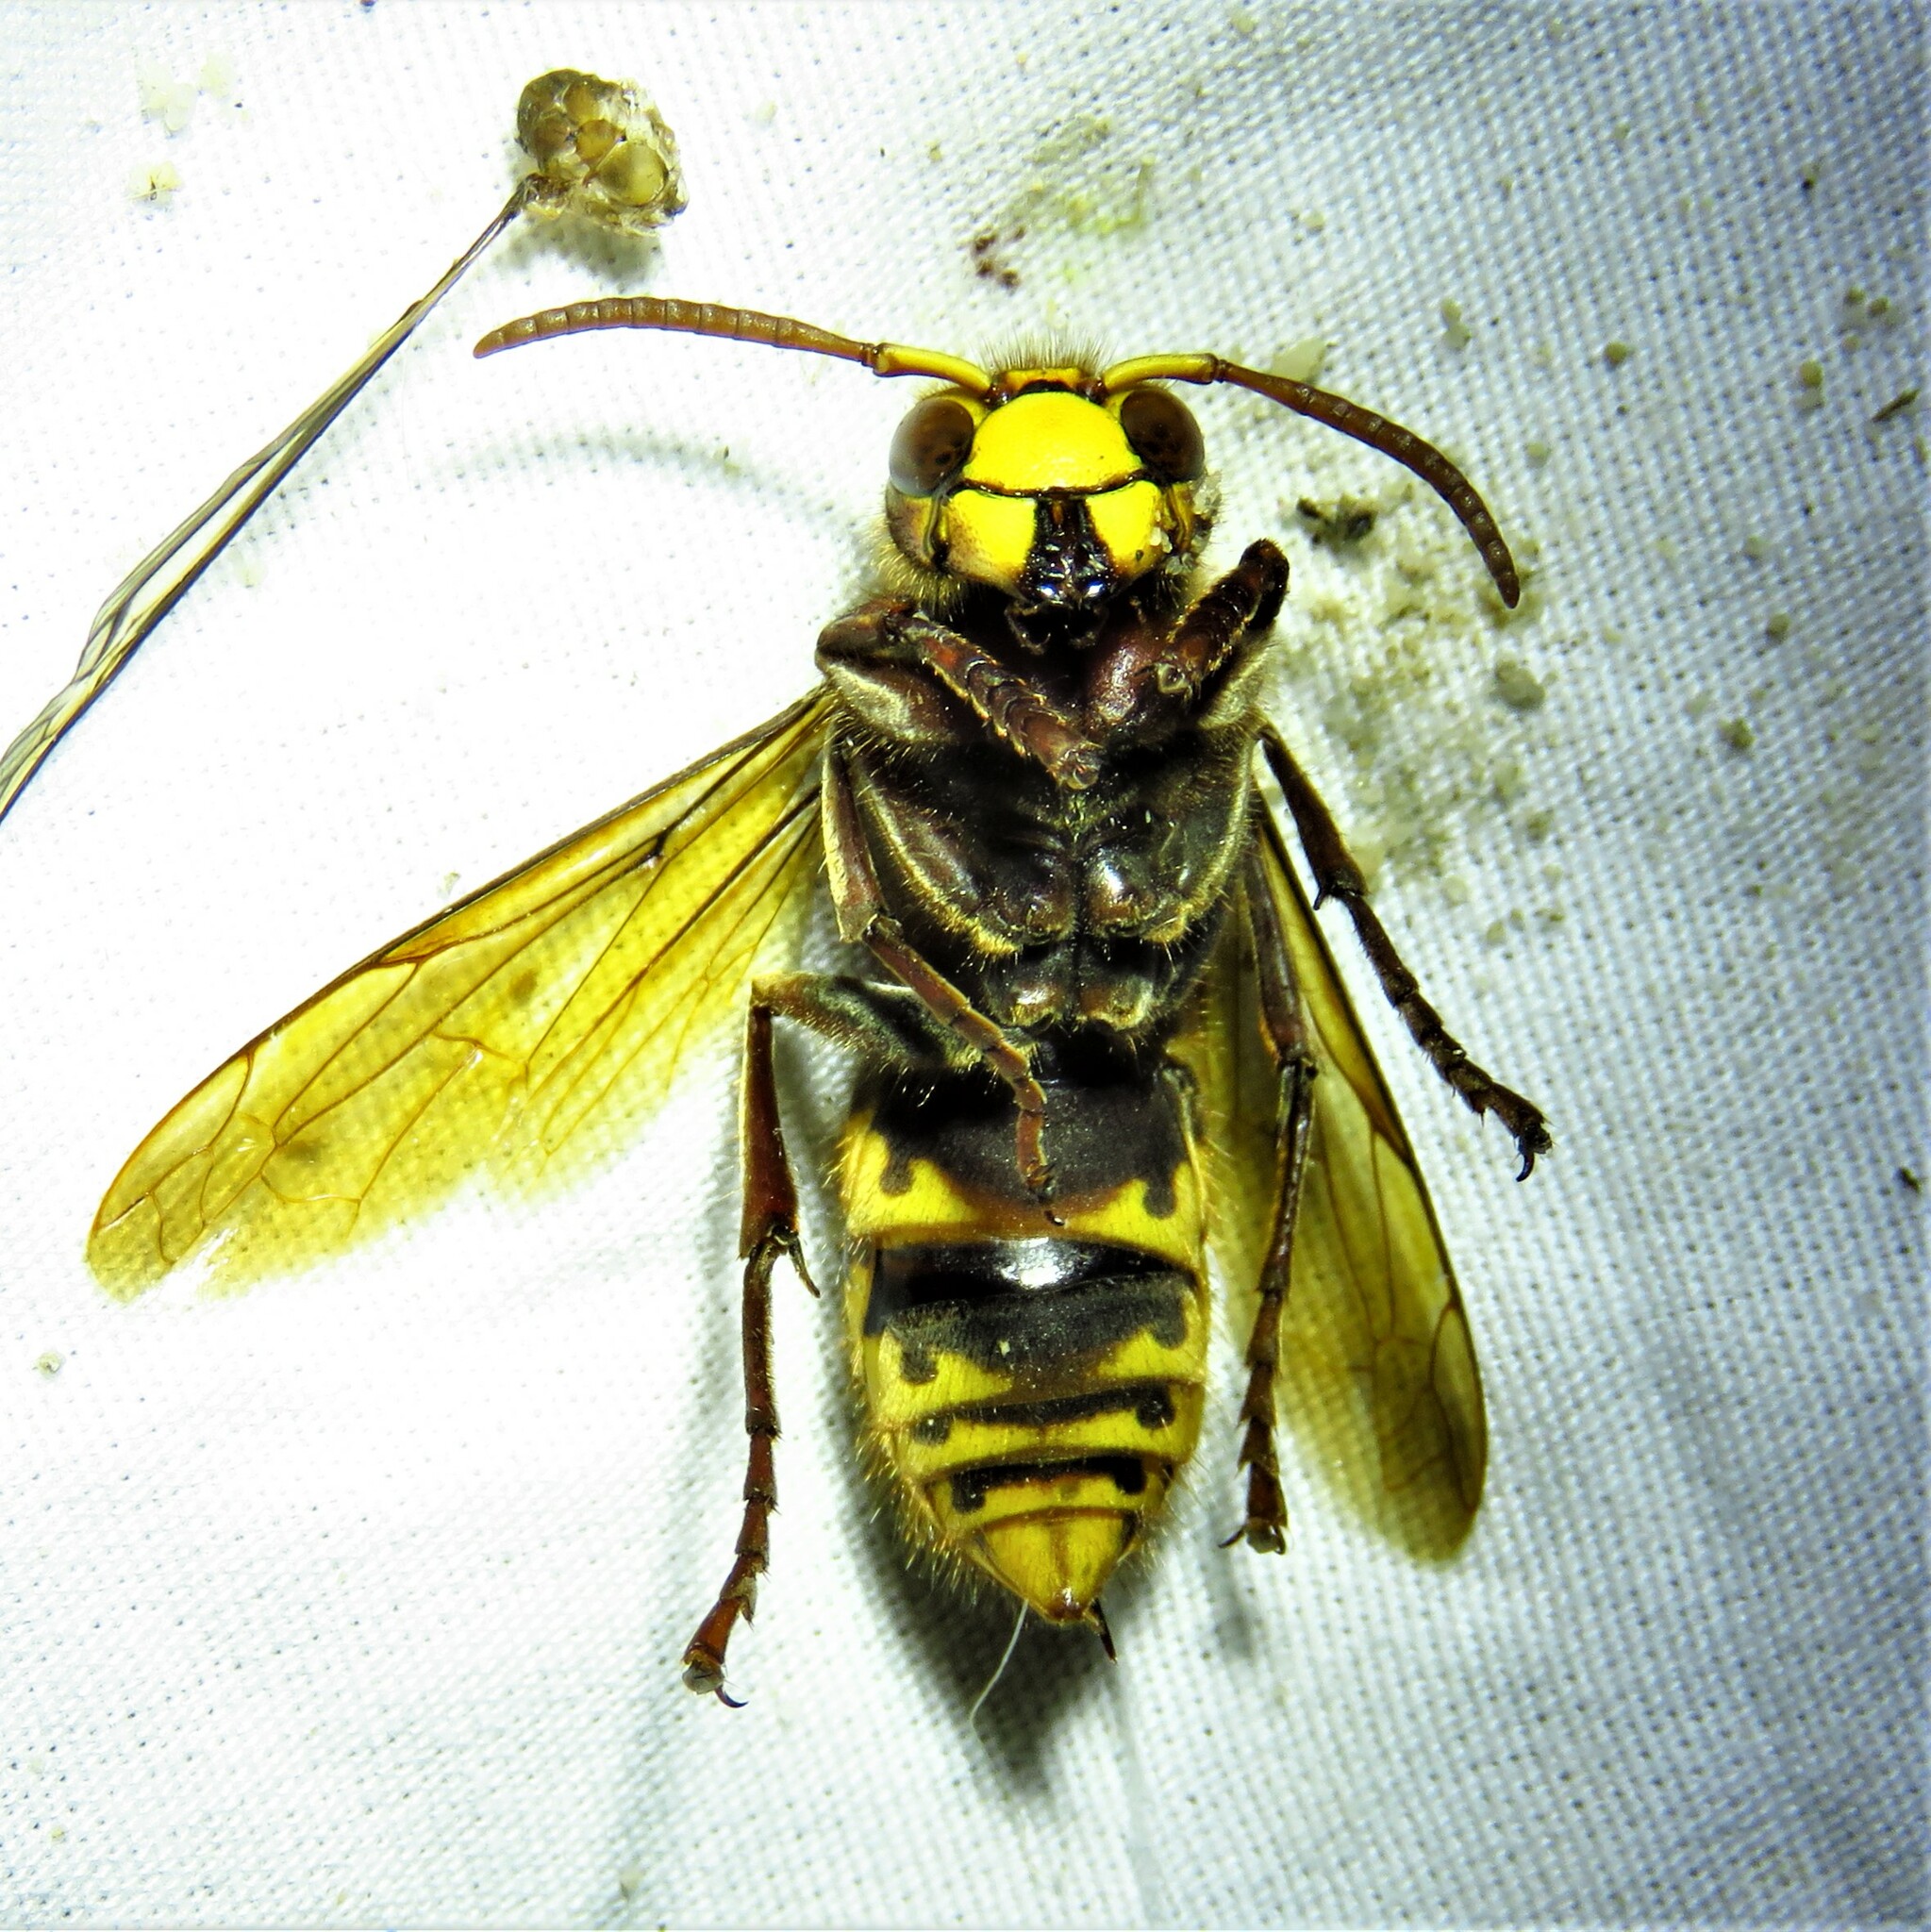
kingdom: Animalia
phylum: Arthropoda
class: Insecta
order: Hymenoptera
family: Vespidae
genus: Vespa
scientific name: Vespa crabro
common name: Hornet
